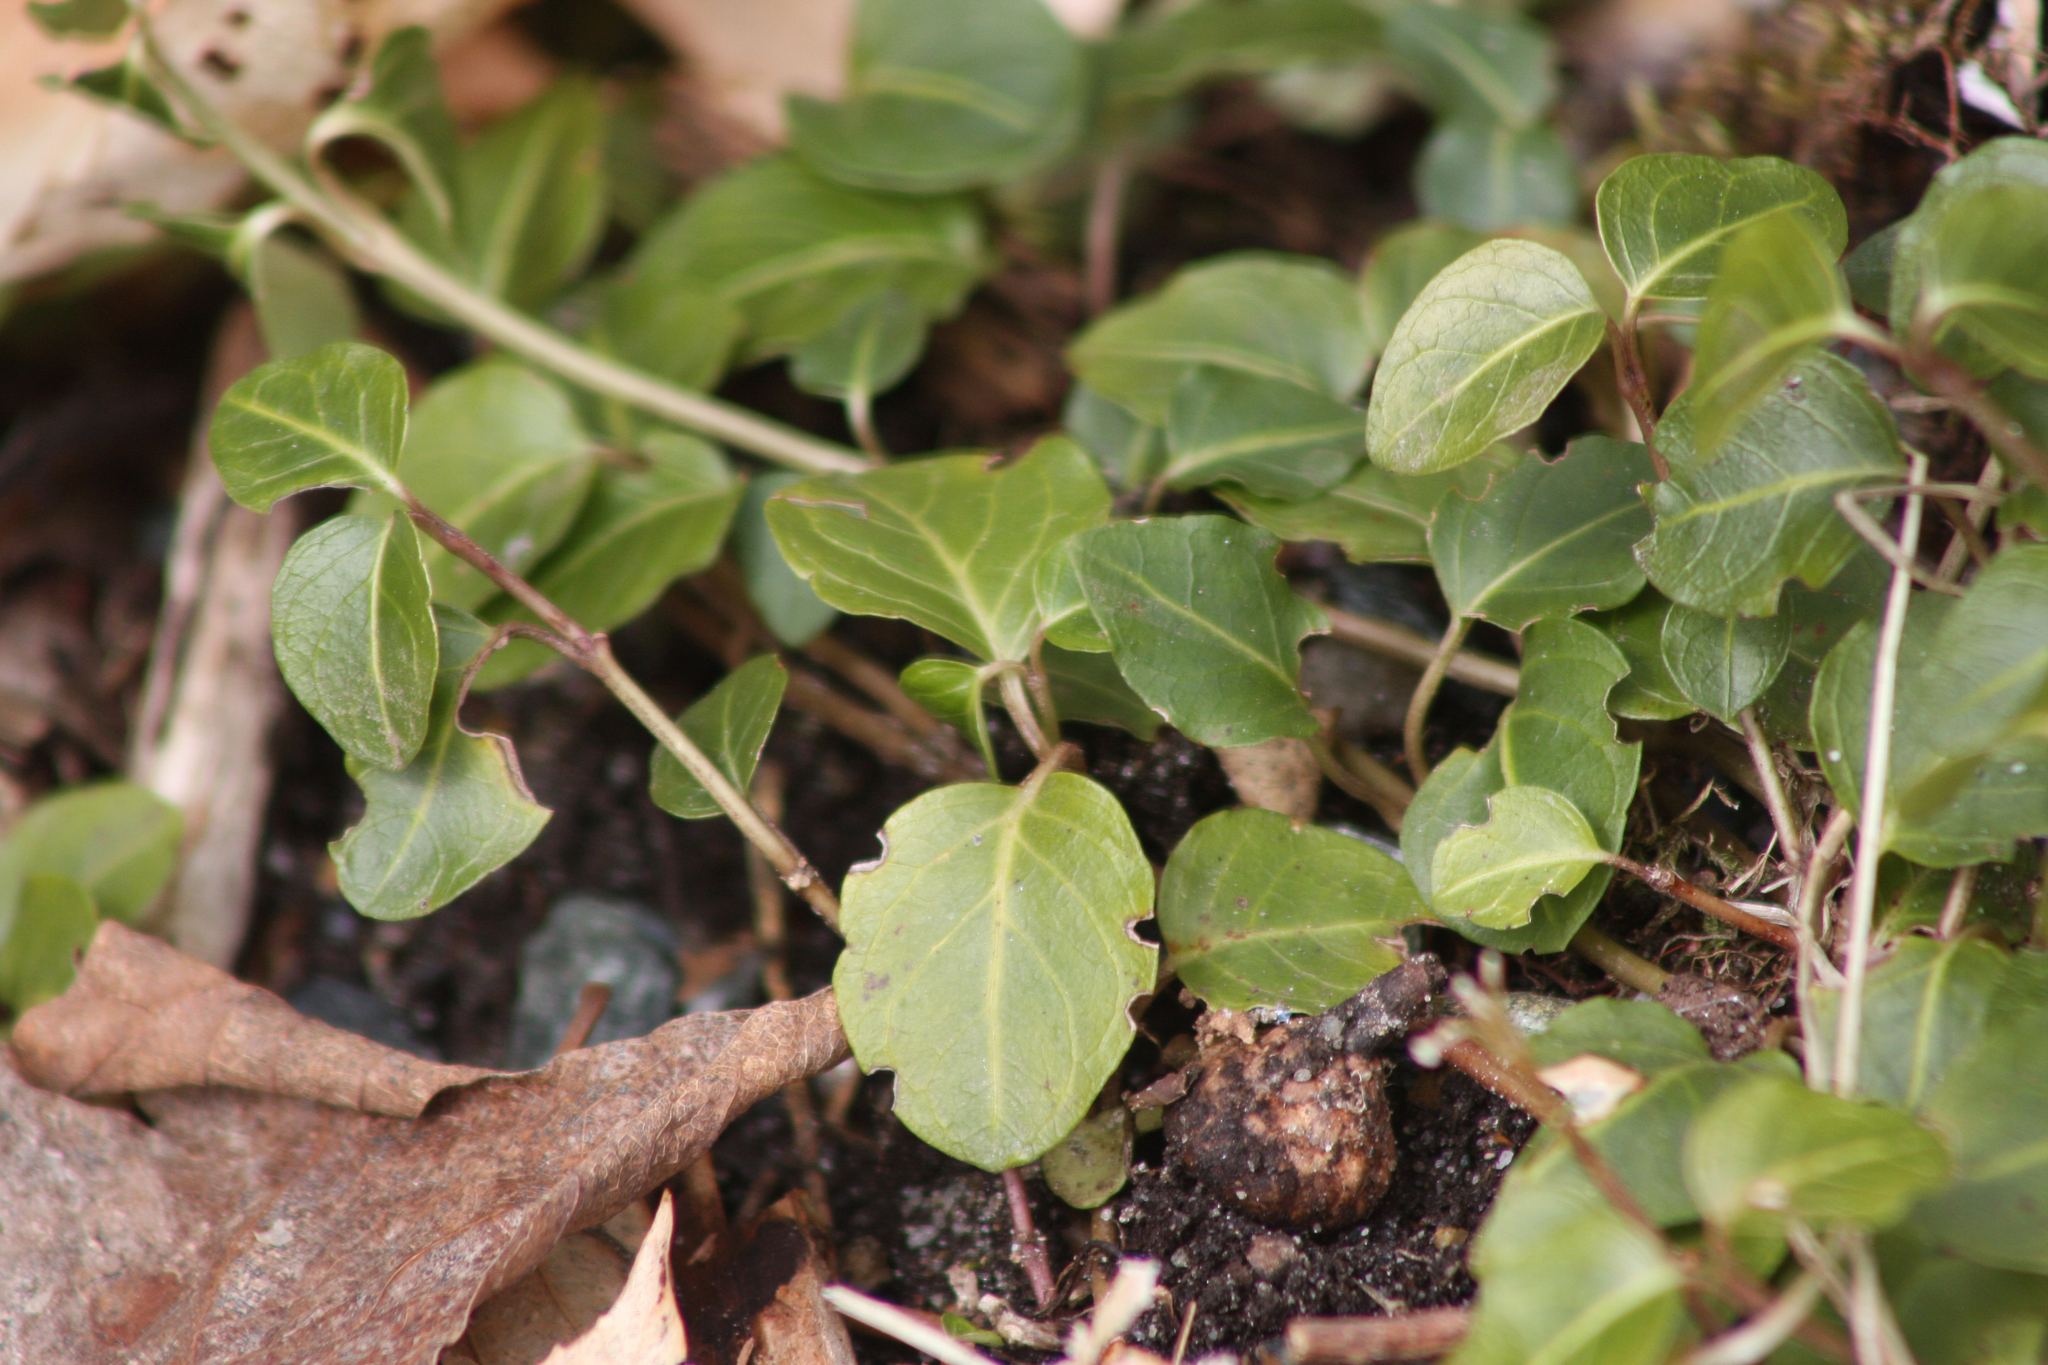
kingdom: Plantae
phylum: Tracheophyta
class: Magnoliopsida
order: Gentianales
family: Rubiaceae
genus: Mitchella
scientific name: Mitchella repens
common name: Partridge-berry
